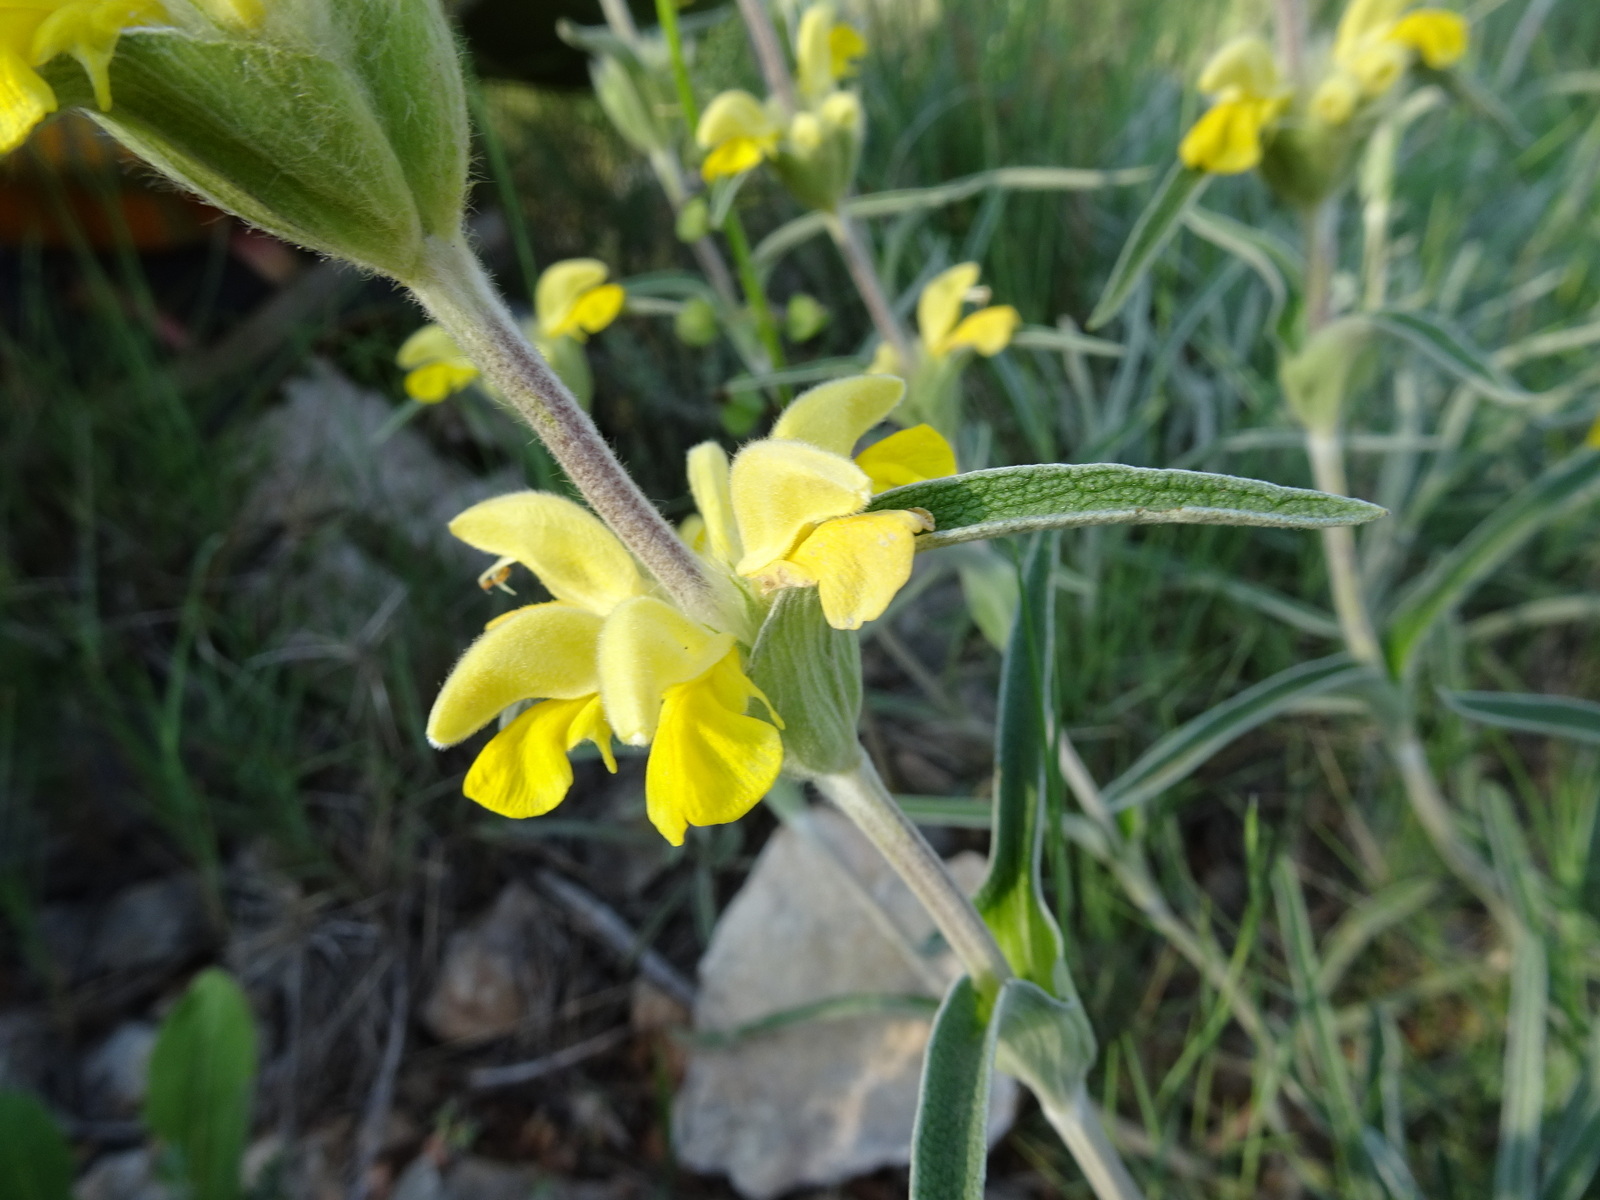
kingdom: Plantae
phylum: Tracheophyta
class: Magnoliopsida
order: Lamiales
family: Lamiaceae
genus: Phlomis
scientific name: Phlomis lychnitis
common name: Lampwickplant
